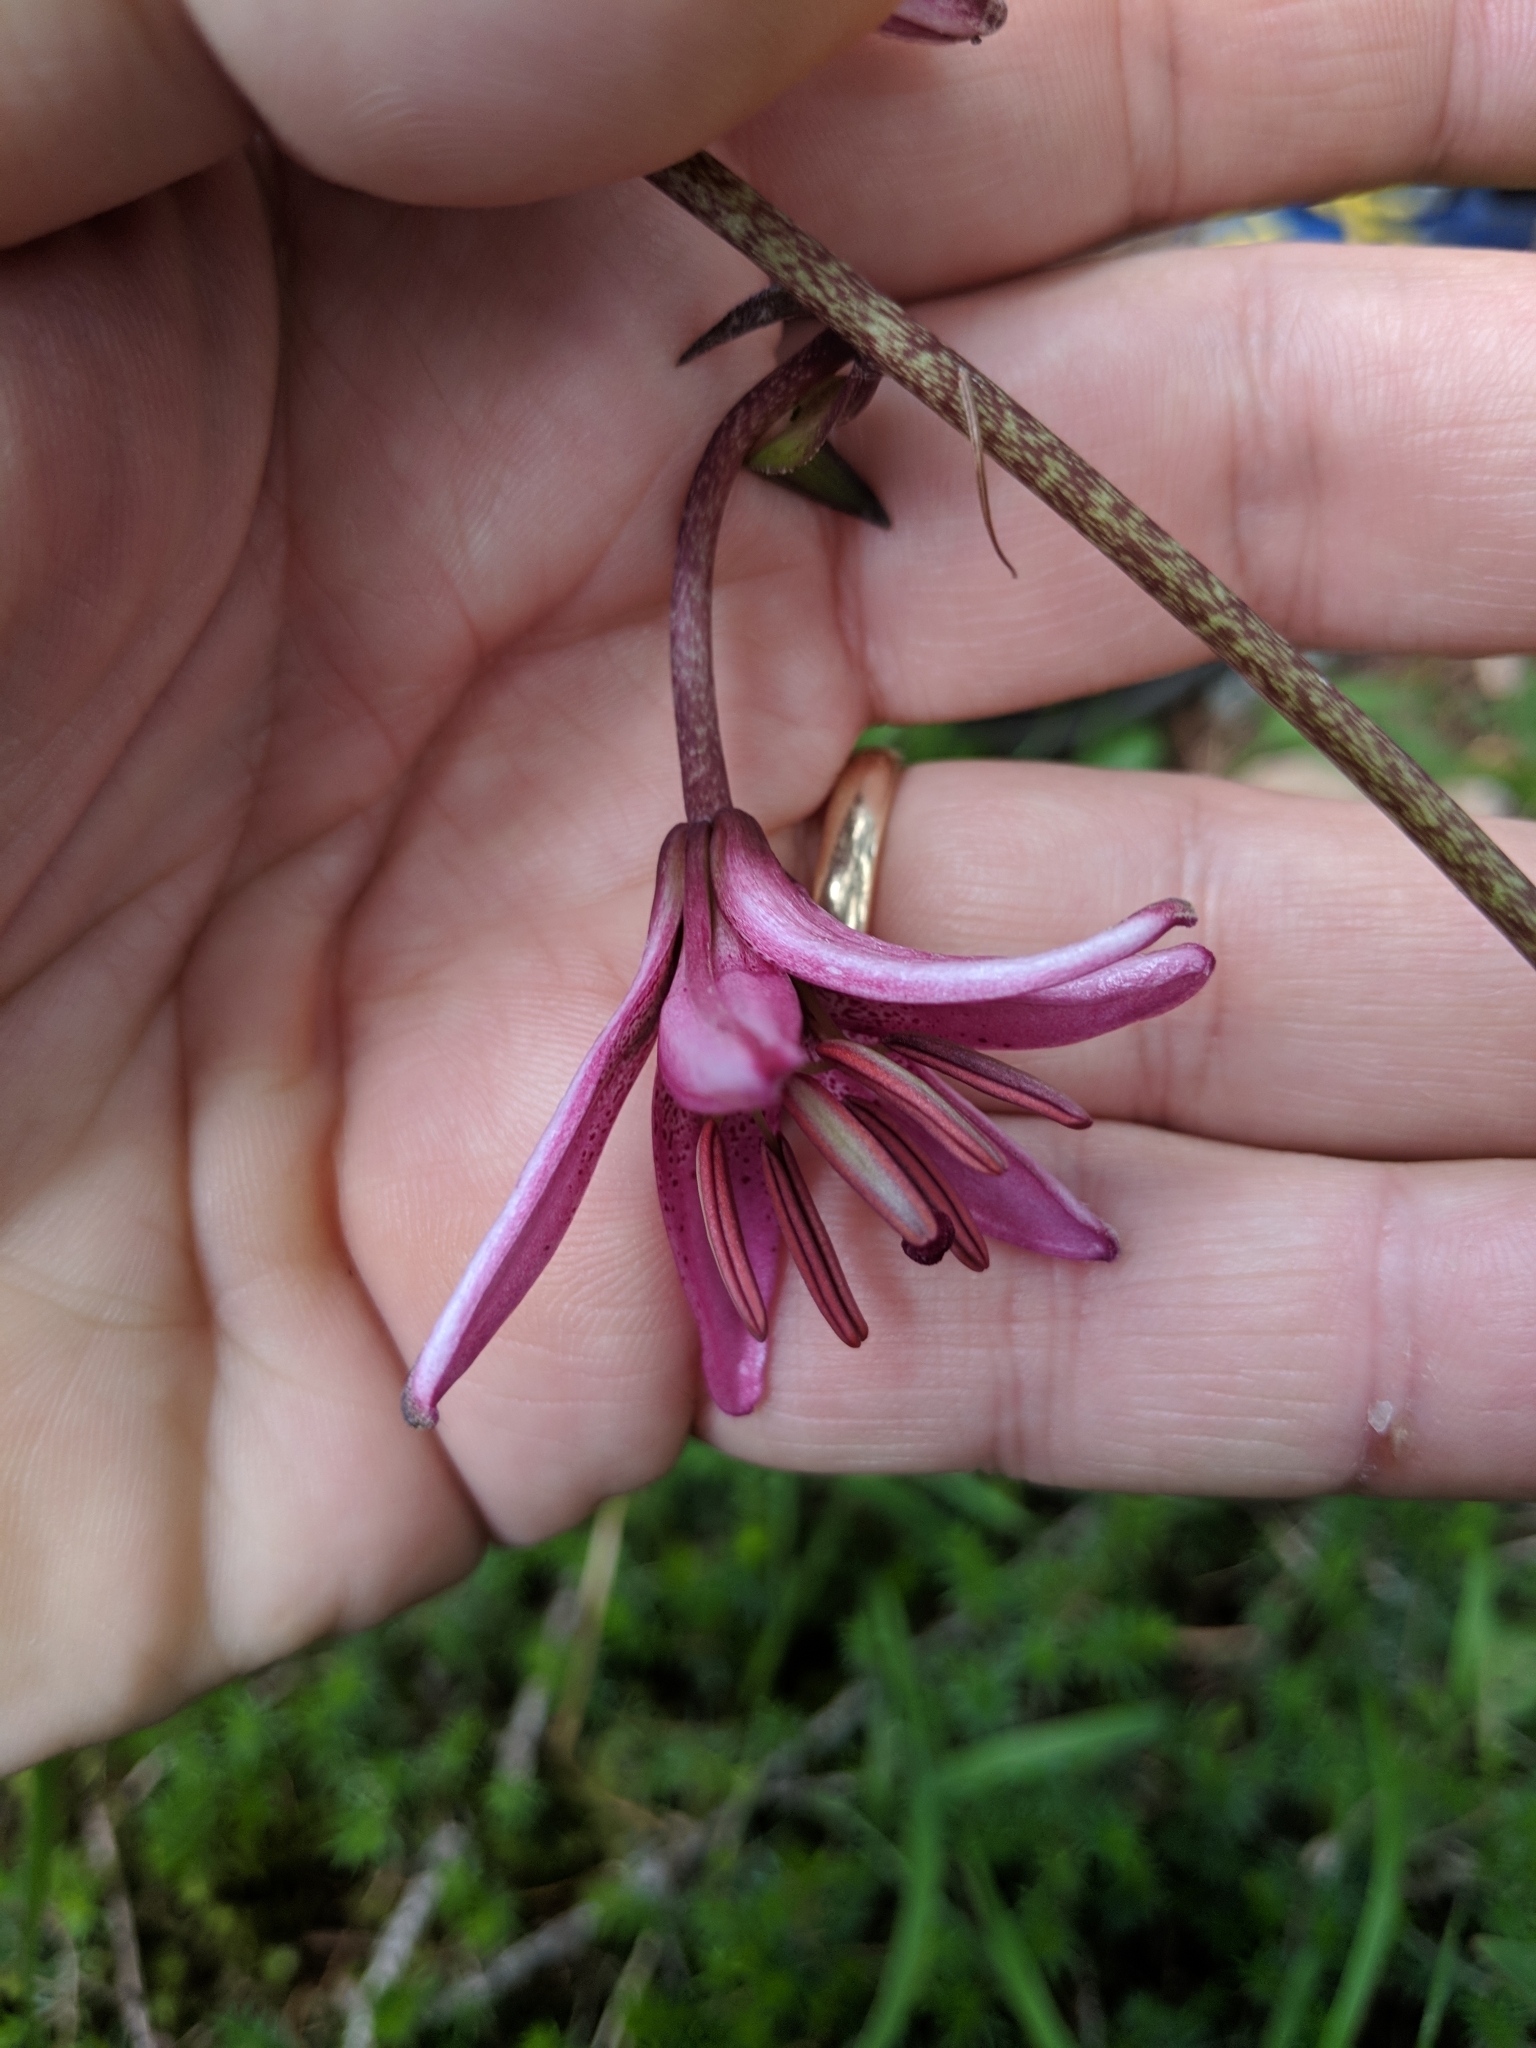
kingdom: Plantae
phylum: Tracheophyta
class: Liliopsida
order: Liliales
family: Liliaceae
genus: Lilium
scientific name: Lilium martagon
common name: Martagon lily
